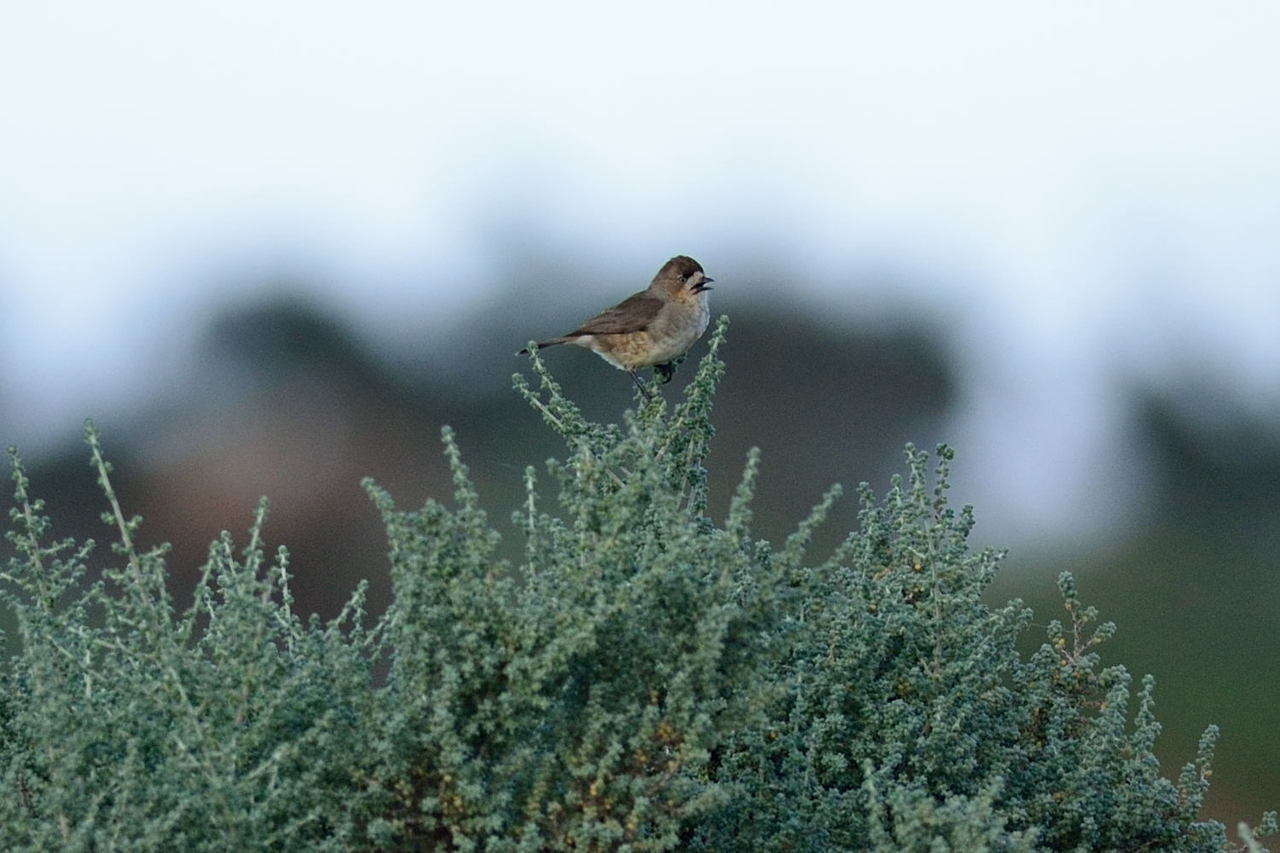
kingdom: Animalia
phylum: Chordata
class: Aves
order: Passeriformes
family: Acanthizidae
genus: Aphelocephala
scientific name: Aphelocephala leucopsis
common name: Southern whiteface
